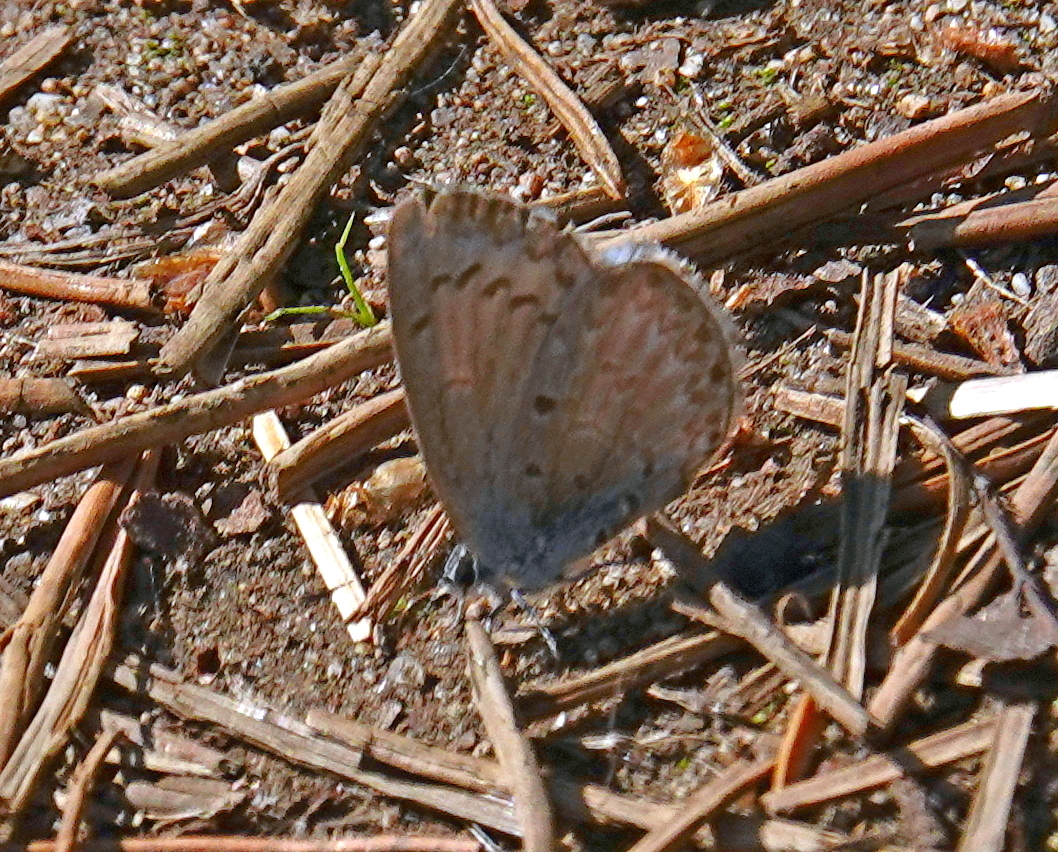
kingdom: Animalia
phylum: Arthropoda
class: Insecta
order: Lepidoptera
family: Lycaenidae
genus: Celastrina
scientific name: Celastrina lucia
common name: Lucia azure
